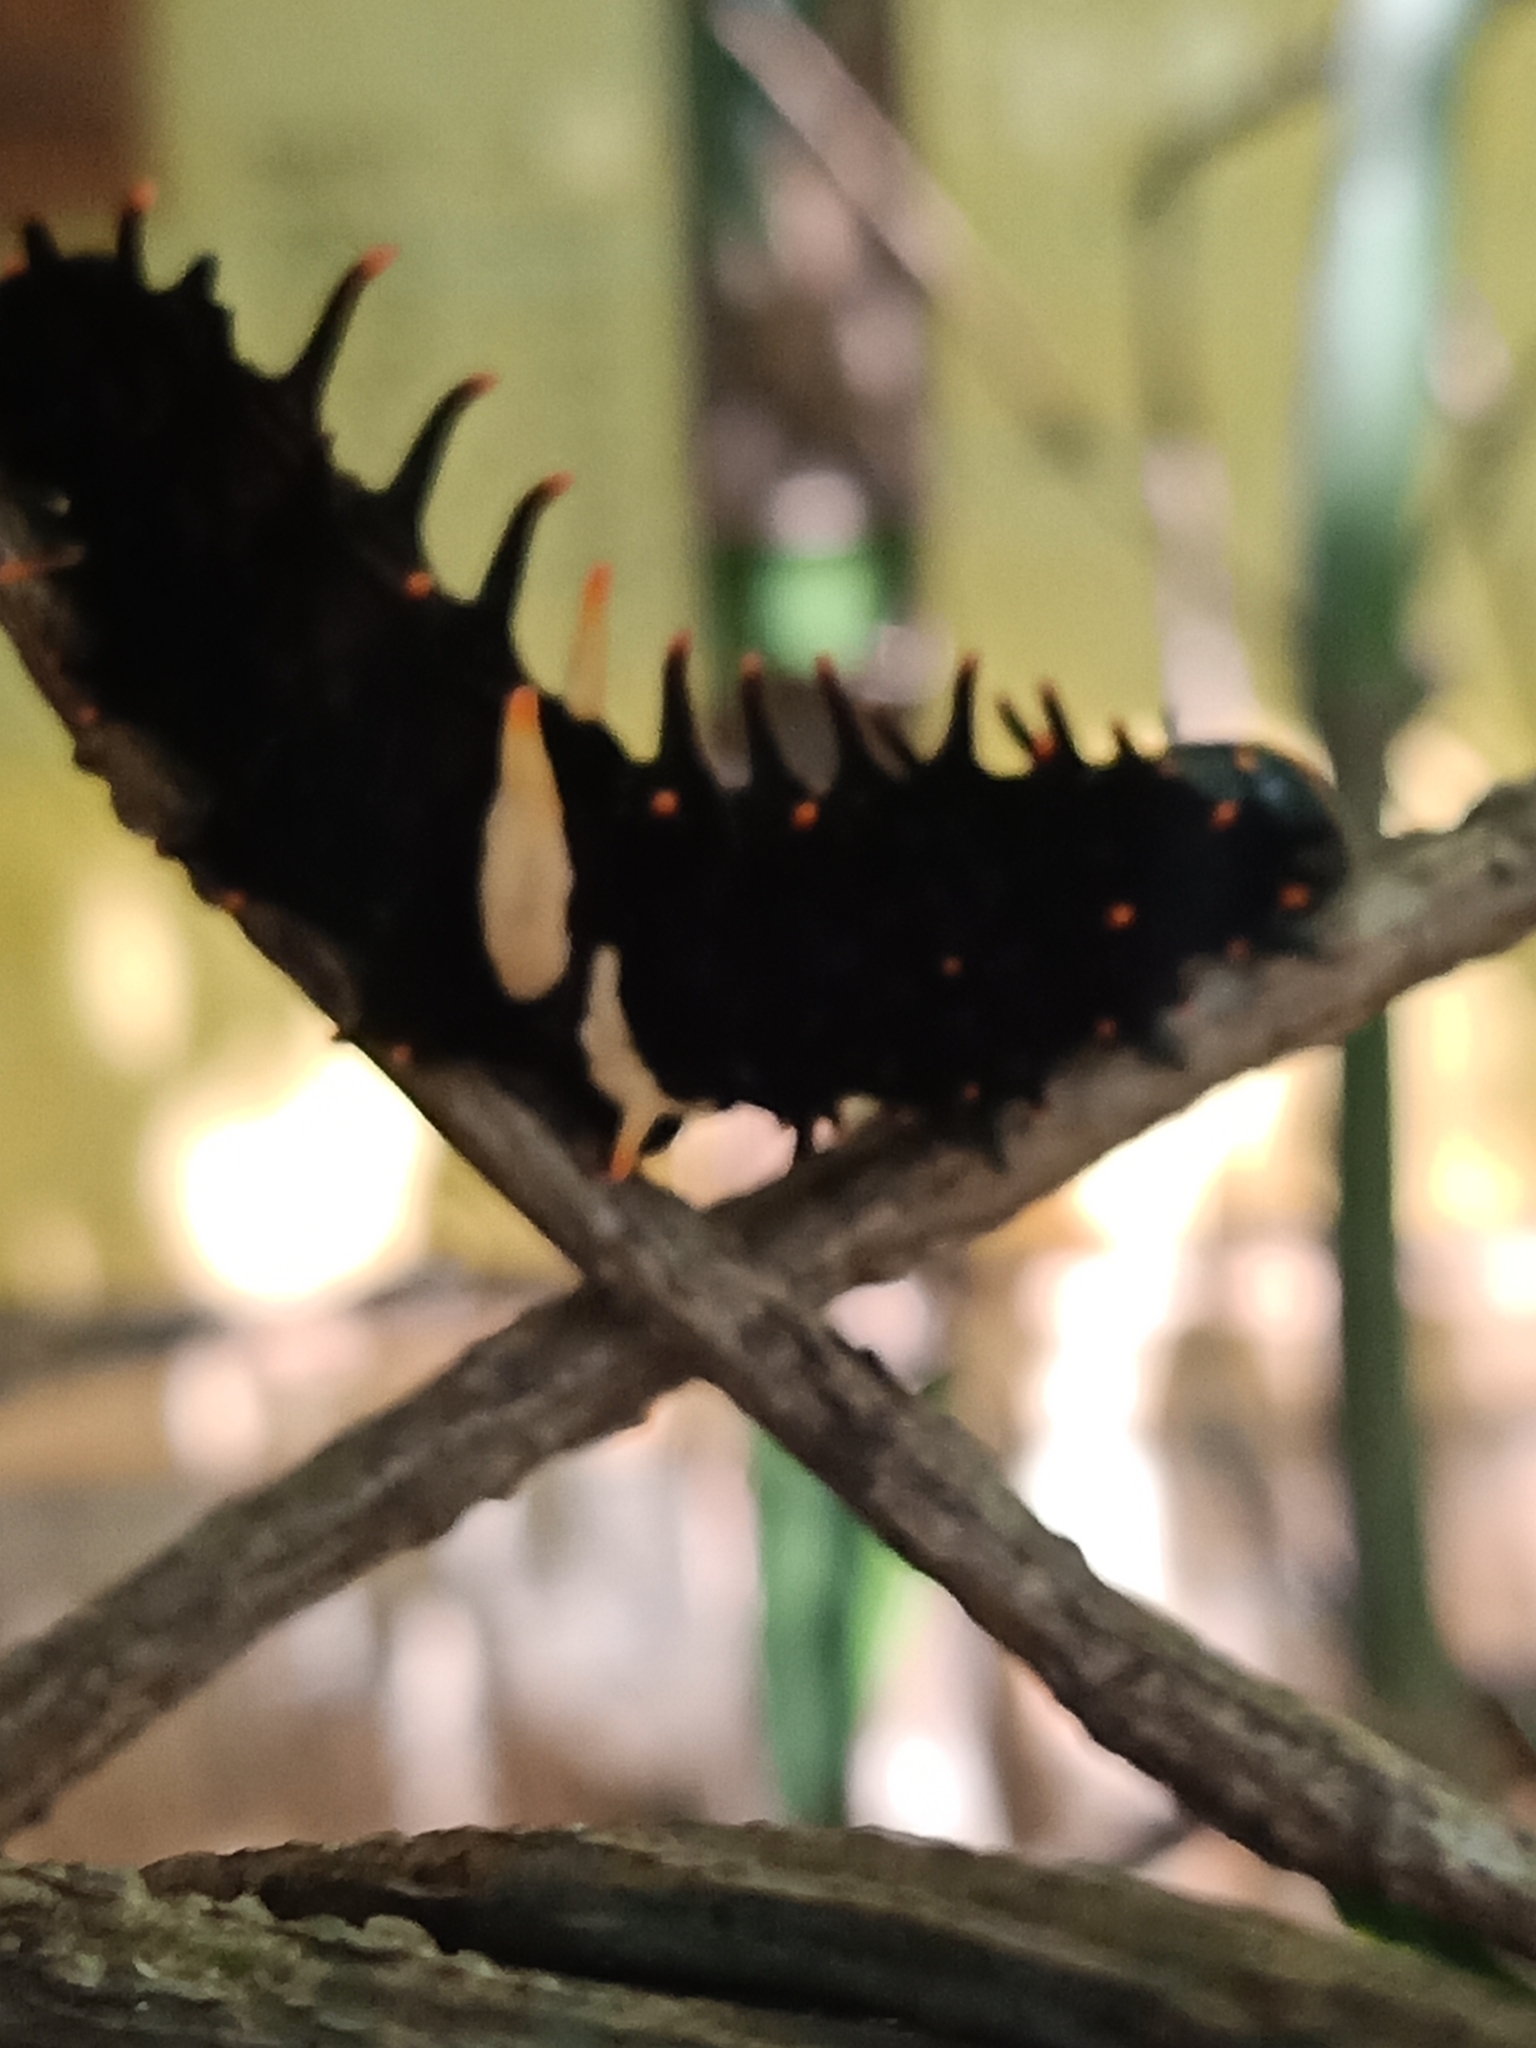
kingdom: Animalia
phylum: Arthropoda
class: Insecta
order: Lepidoptera
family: Papilionidae
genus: Troides
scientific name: Troides minos
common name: Malabar birdwing
